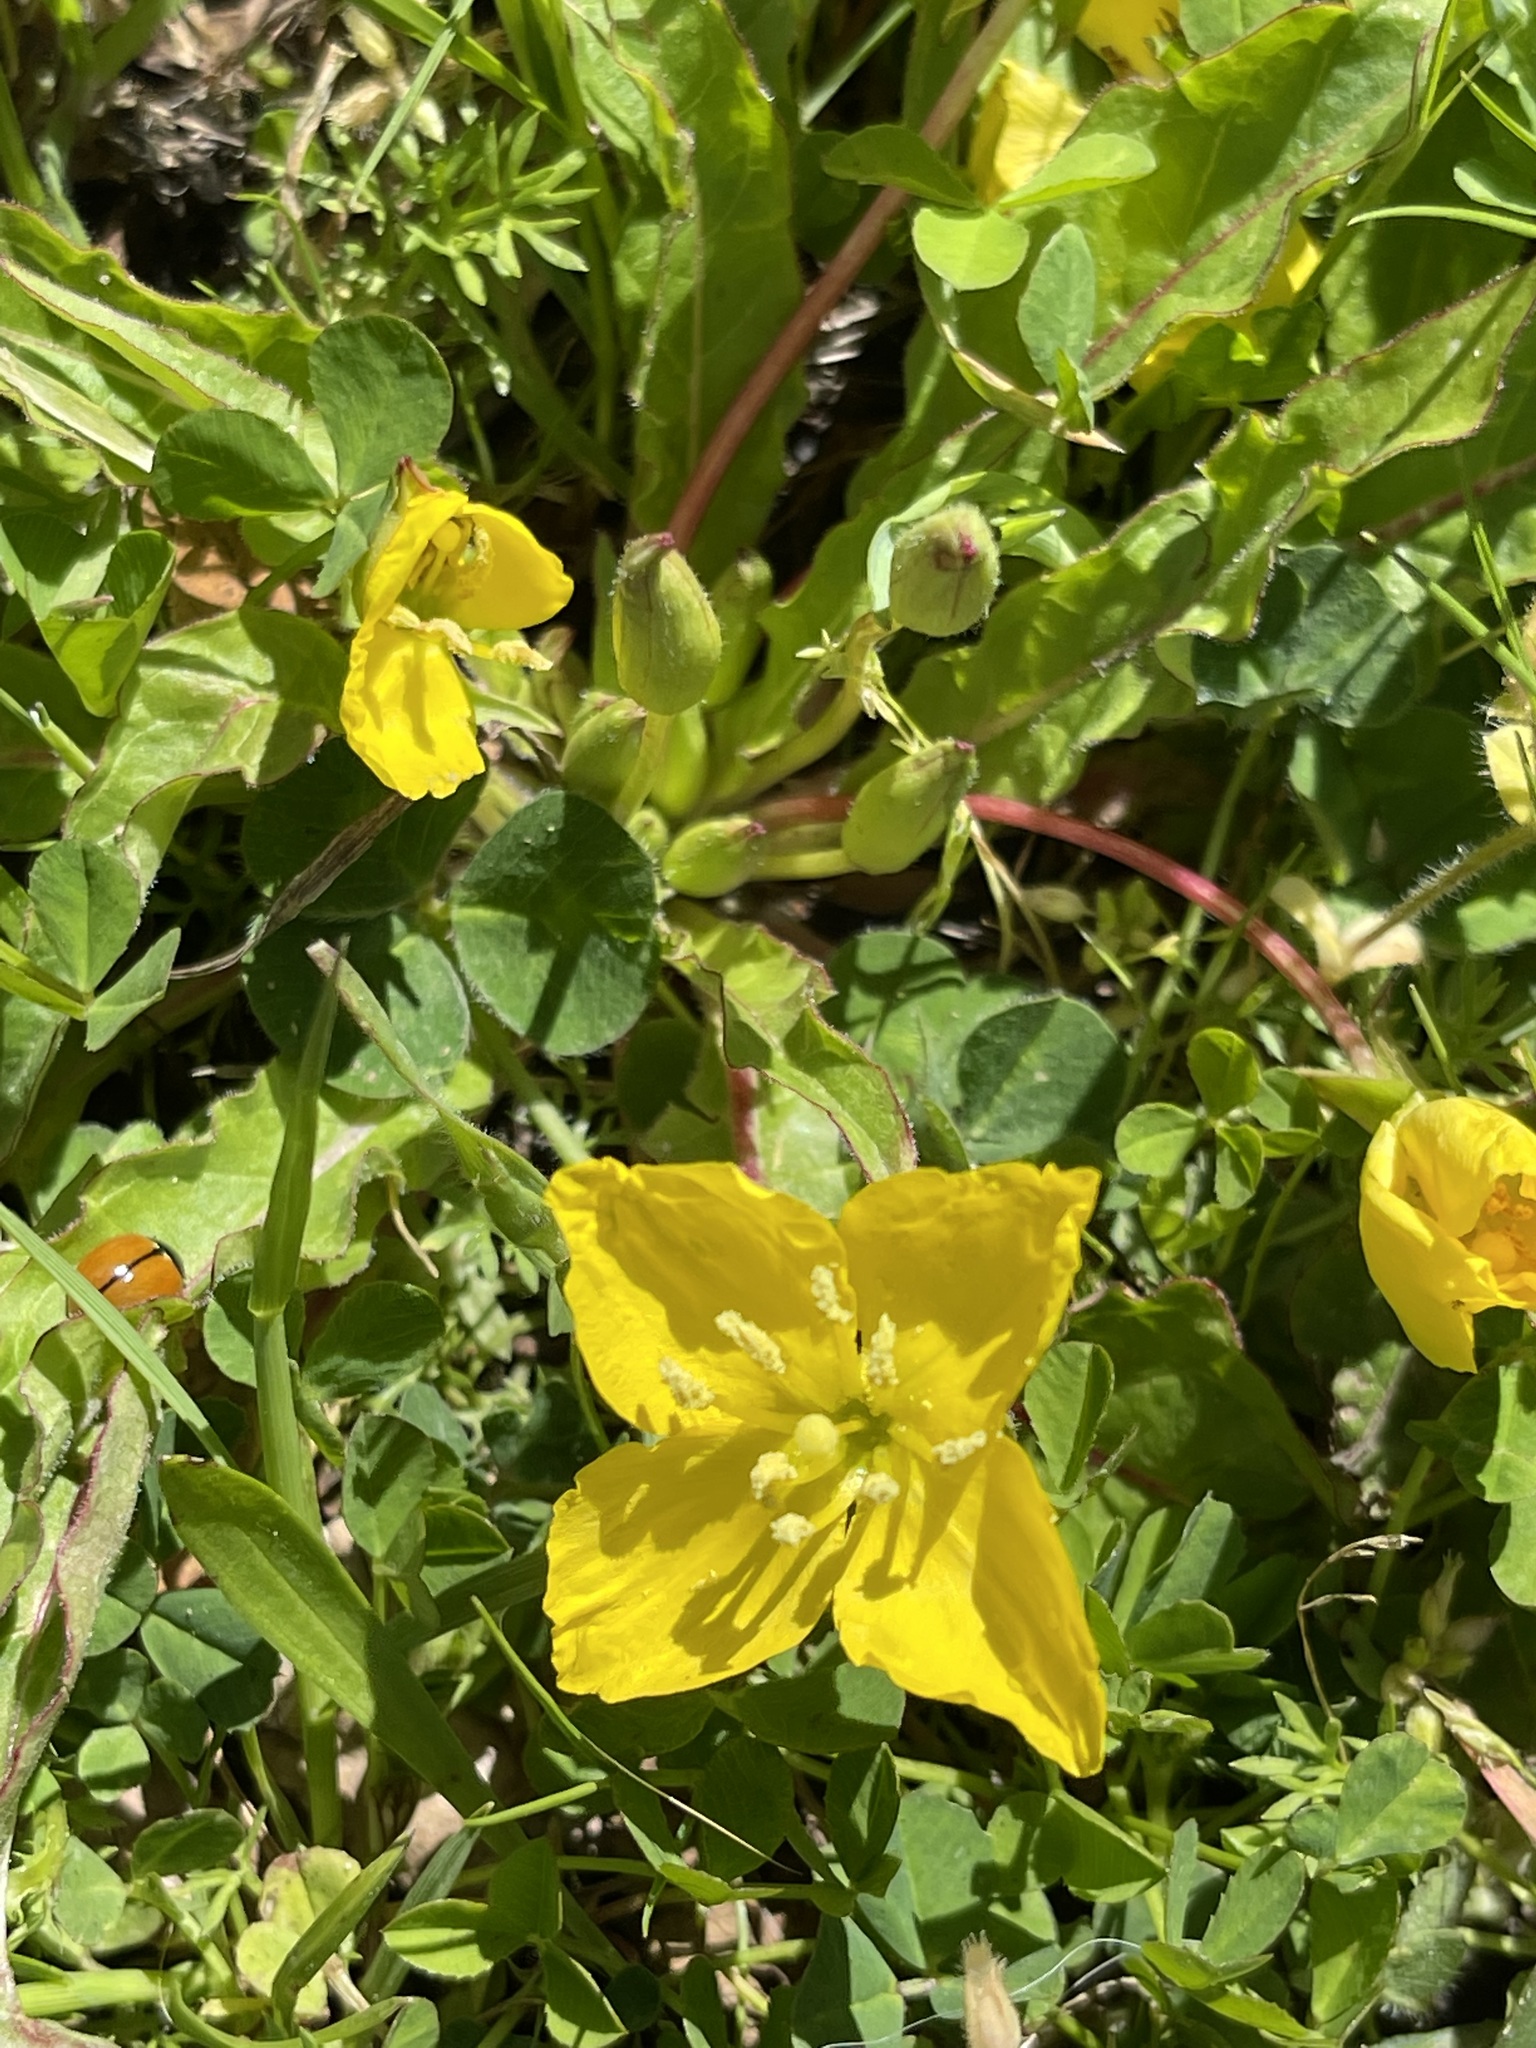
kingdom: Plantae
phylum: Tracheophyta
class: Magnoliopsida
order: Myrtales
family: Onagraceae
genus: Taraxia
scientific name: Taraxia ovata
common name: Goldeneggs
